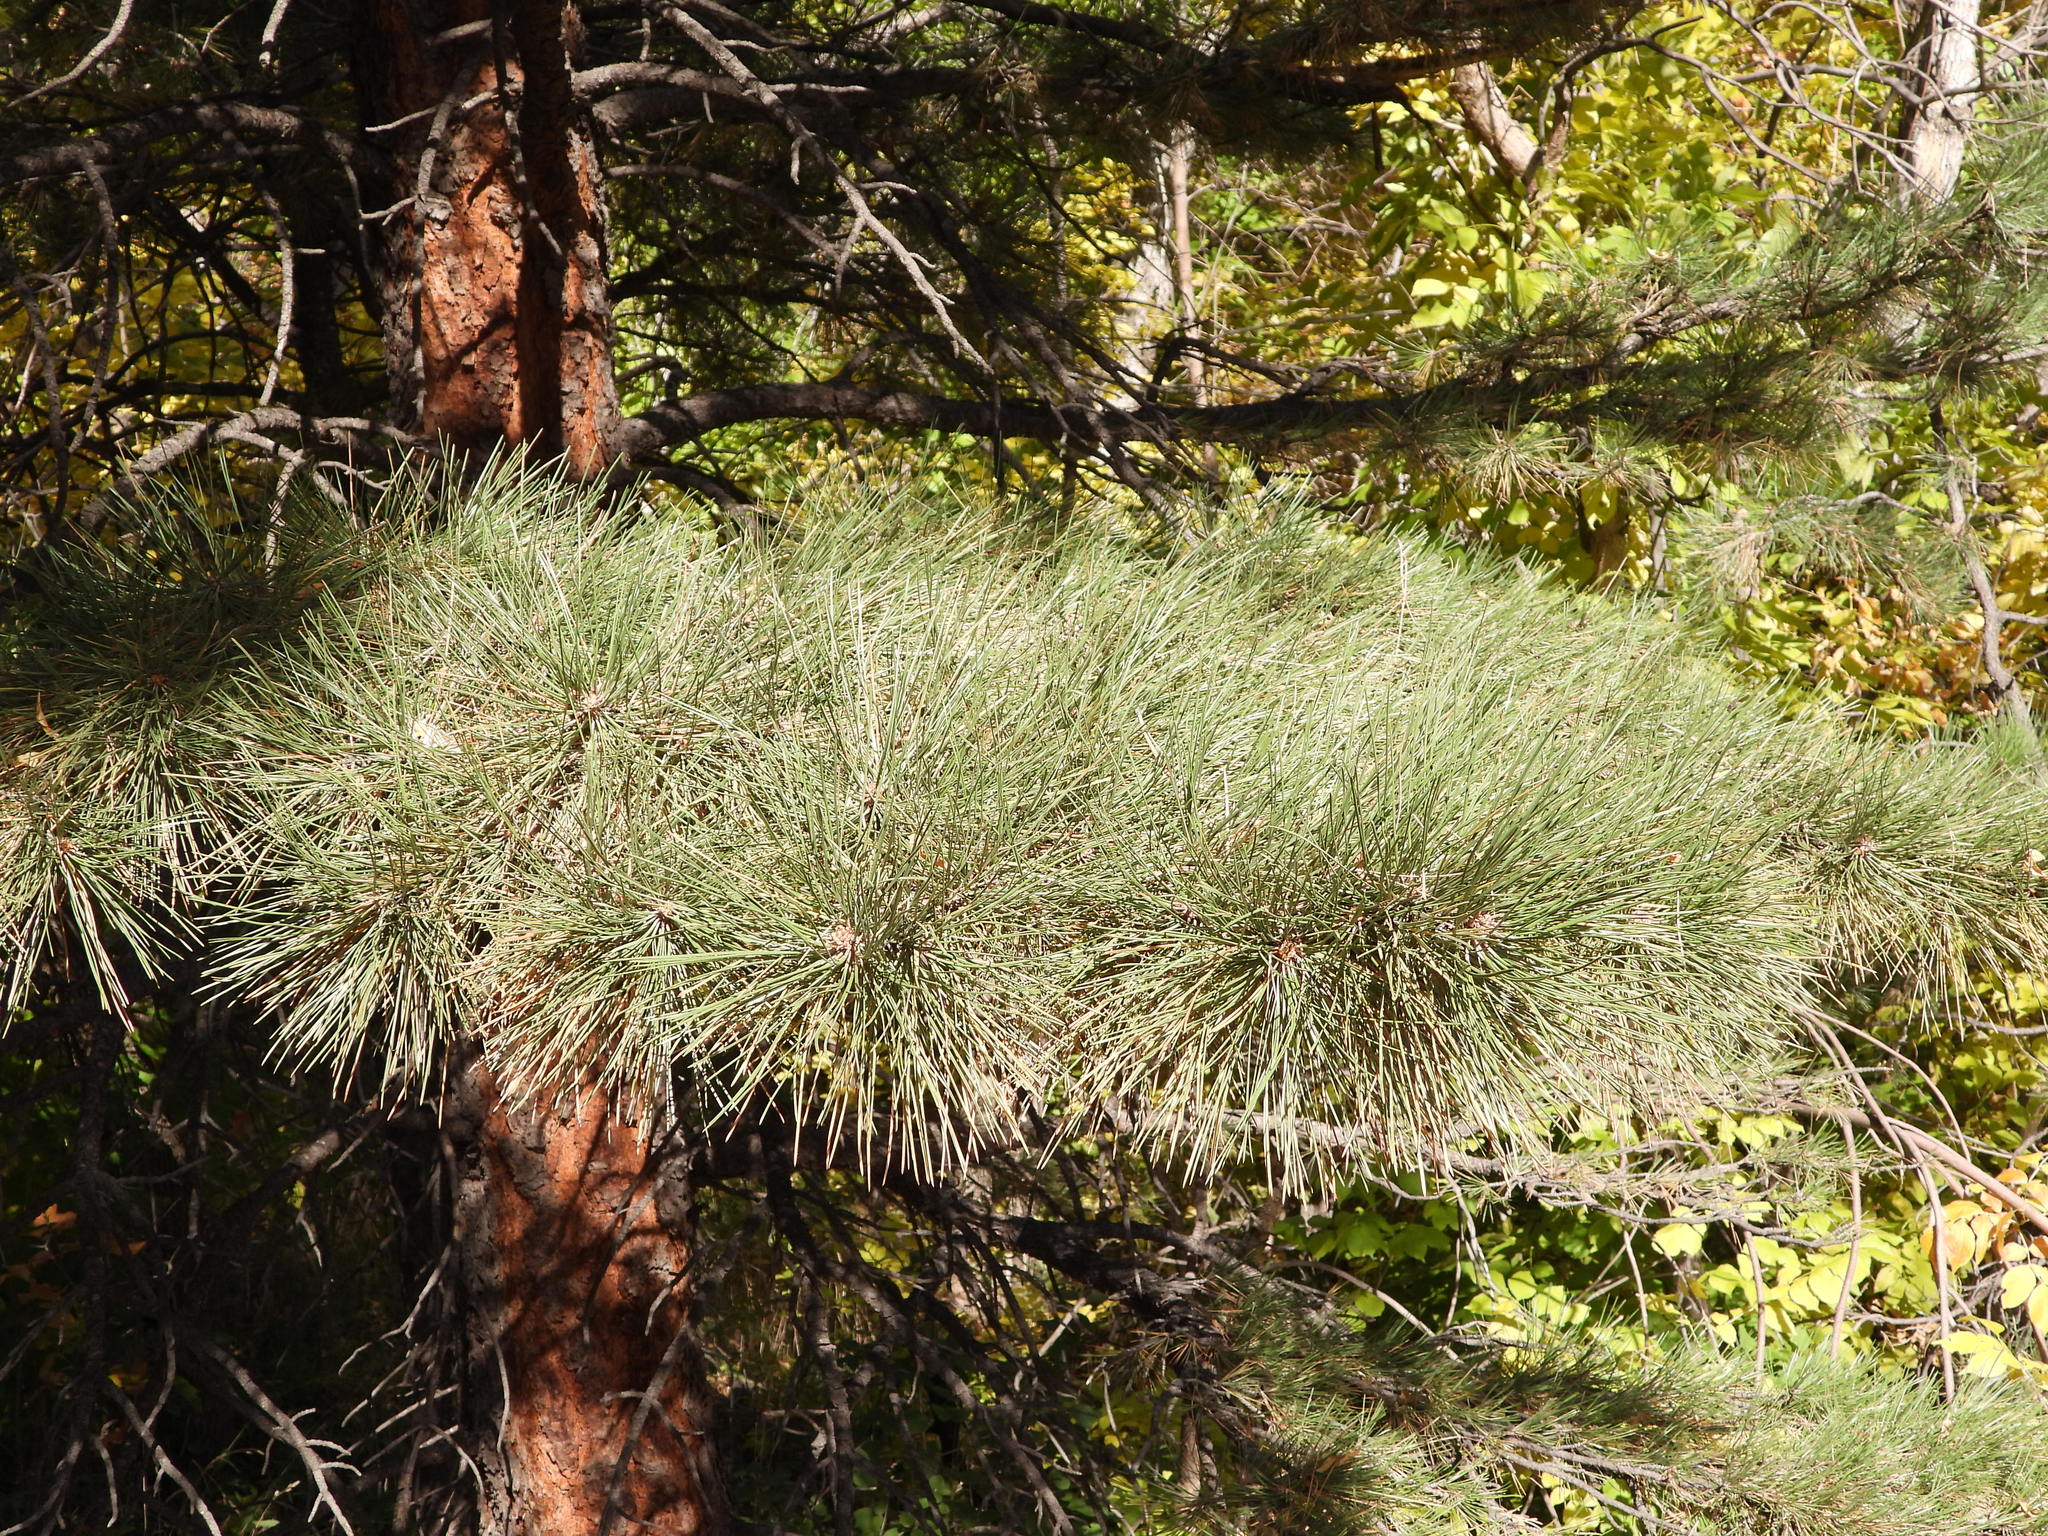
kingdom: Plantae
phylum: Tracheophyta
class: Pinopsida
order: Pinales
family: Pinaceae
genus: Pinus
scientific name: Pinus ponderosa
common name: Western yellow-pine
